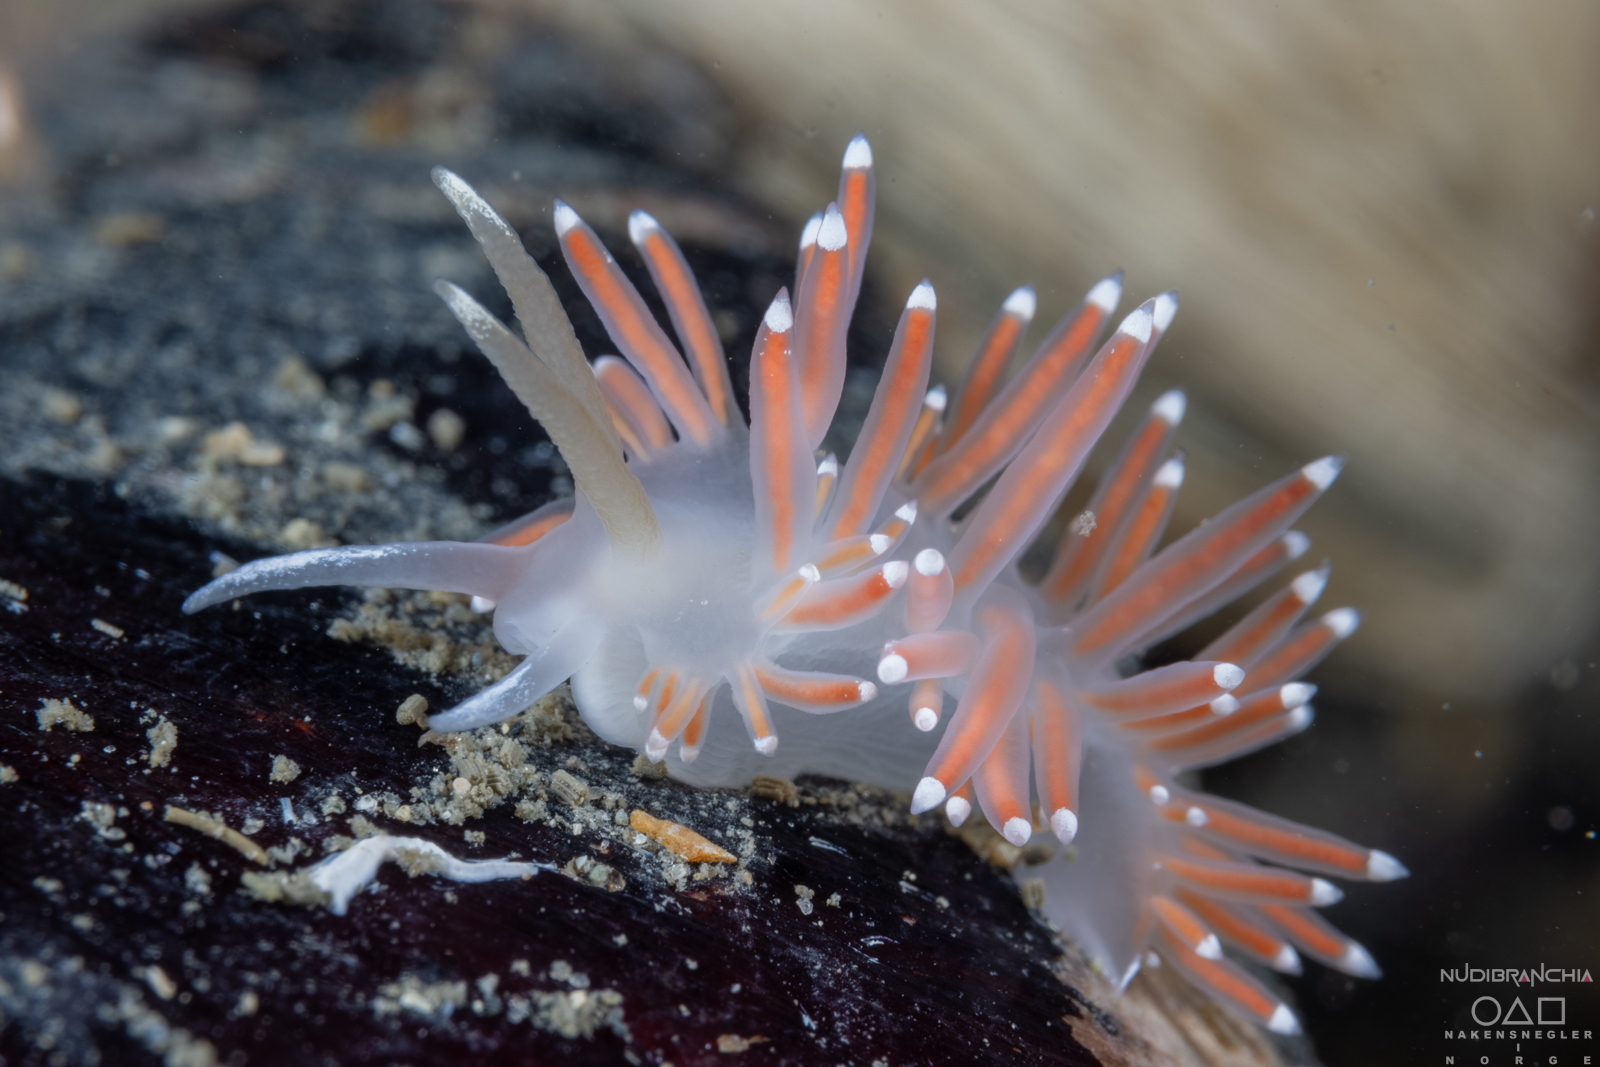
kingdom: Animalia
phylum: Mollusca
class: Gastropoda
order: Nudibranchia
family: Coryphellidae
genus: Coryphella
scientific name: Coryphella browni
